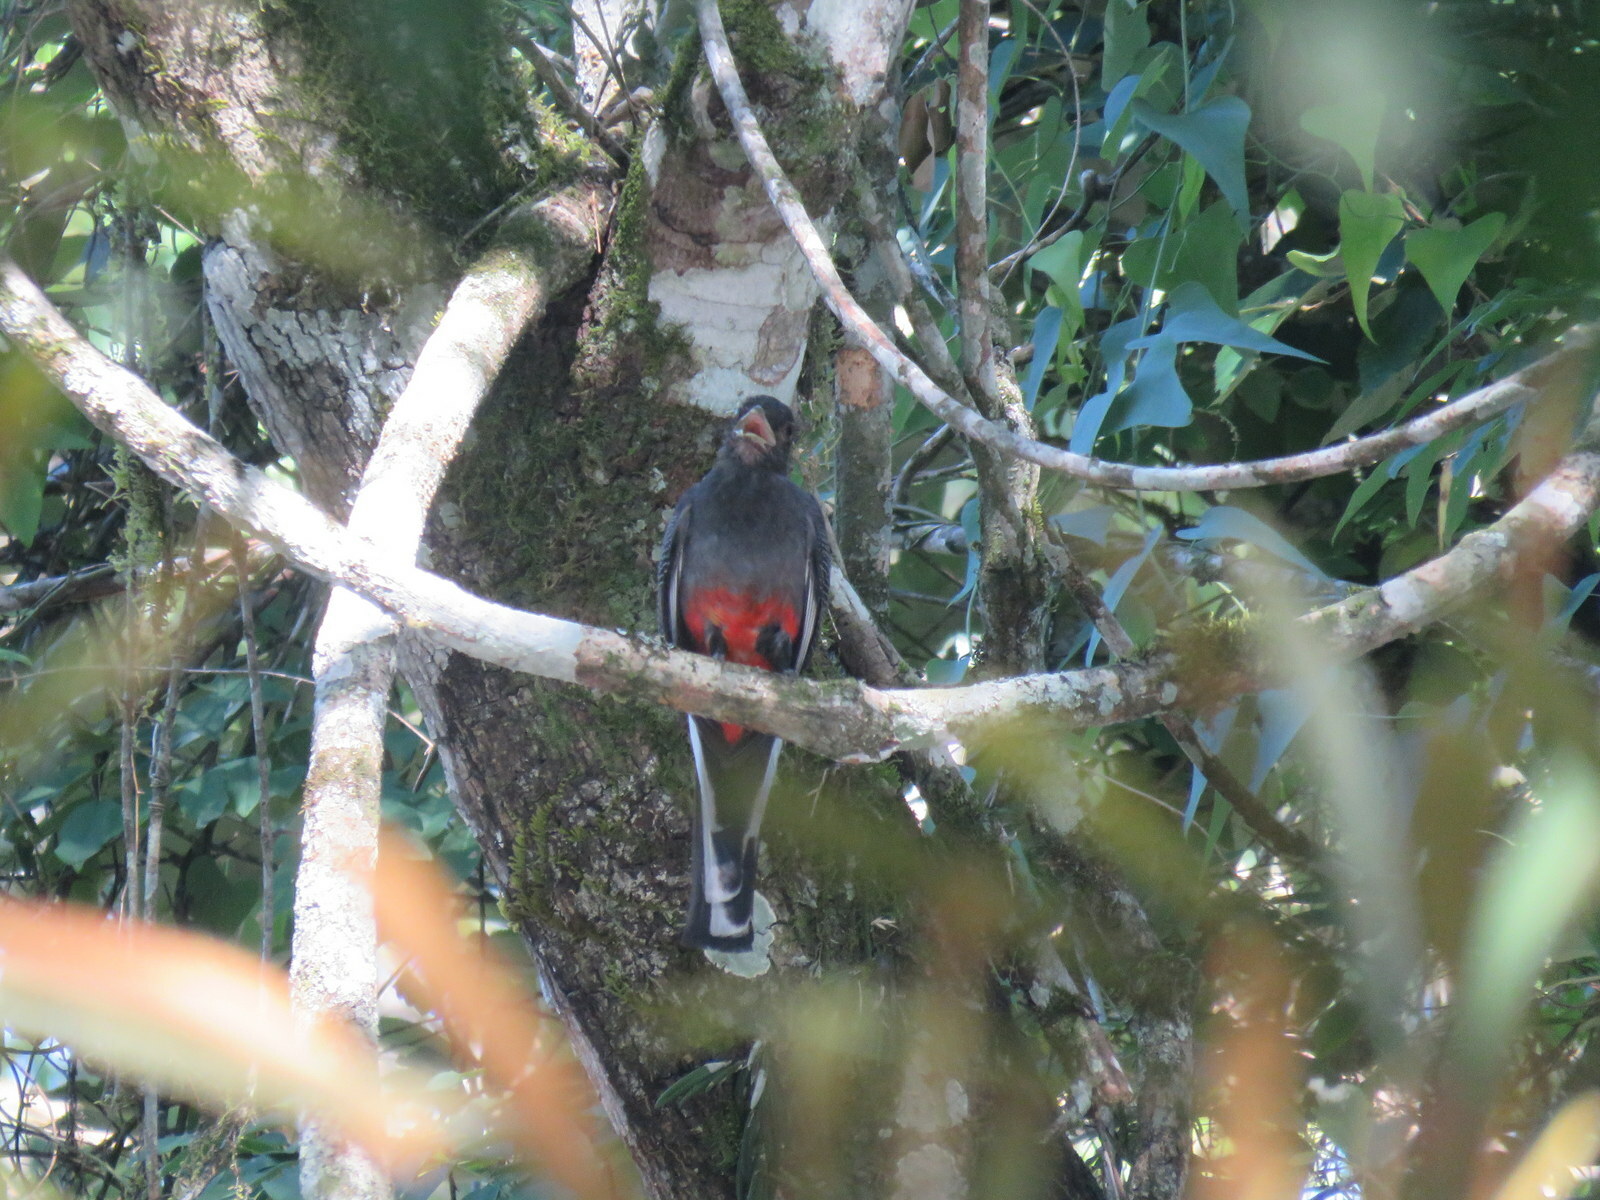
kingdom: Animalia
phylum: Chordata
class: Aves
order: Trogoniformes
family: Trogonidae
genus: Trogon
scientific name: Trogon surrucura
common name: Surucua trogon
